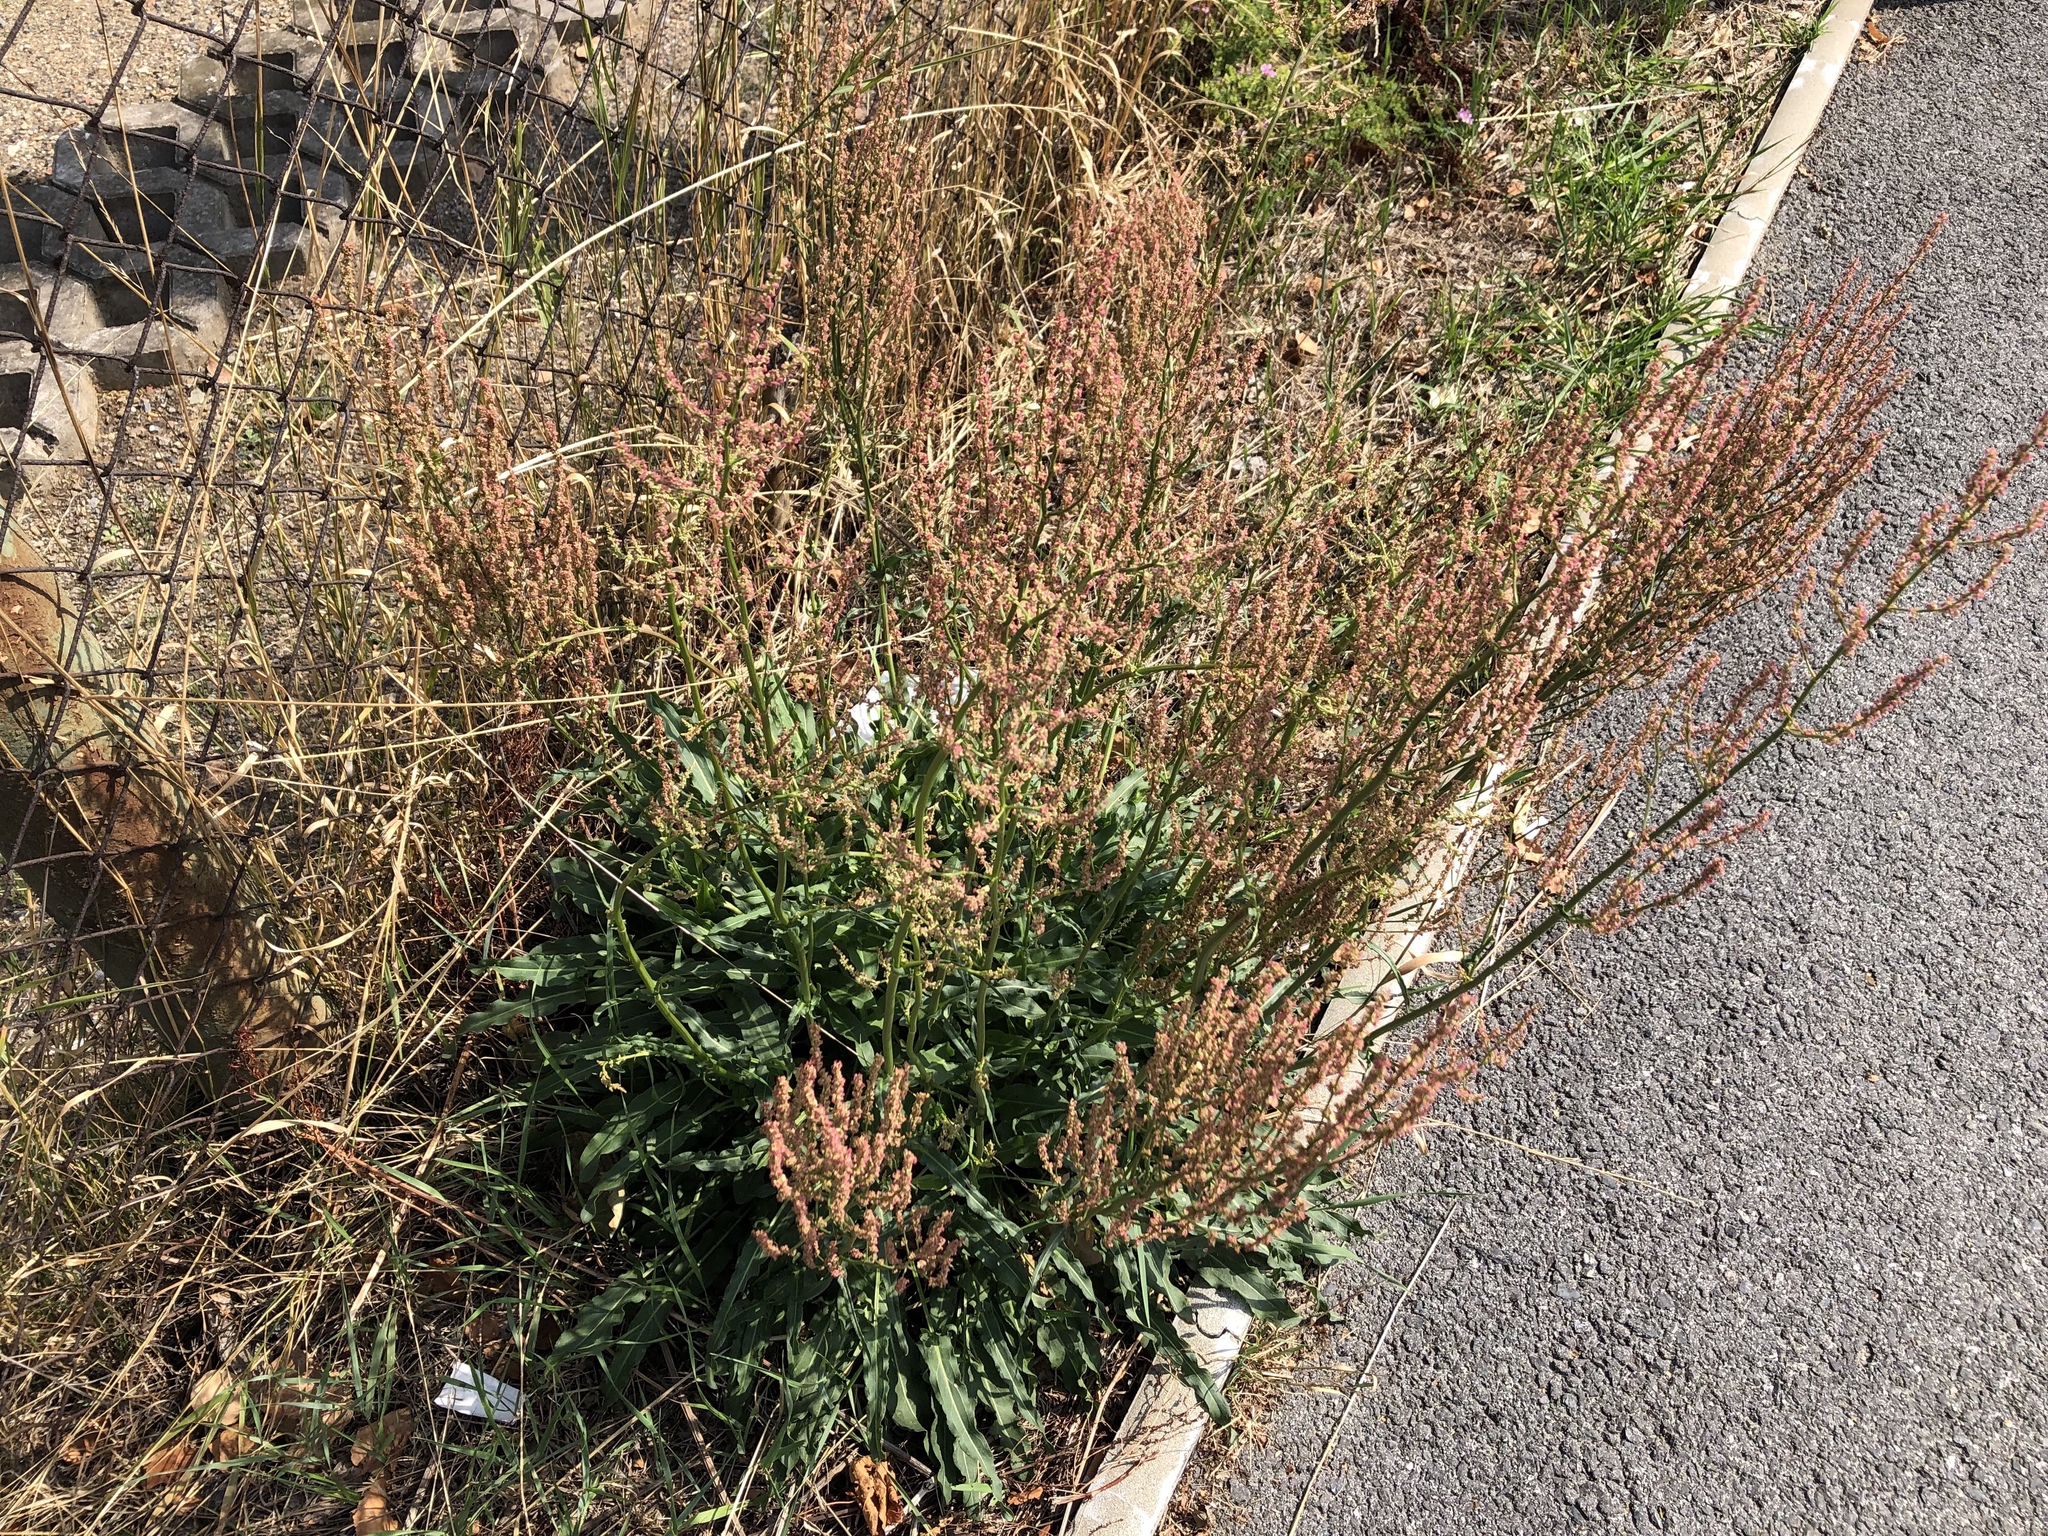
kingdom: Plantae
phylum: Tracheophyta
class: Magnoliopsida
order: Caryophyllales
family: Polygonaceae
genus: Rumex
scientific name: Rumex thyrsiflorus
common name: Garden sorrel
